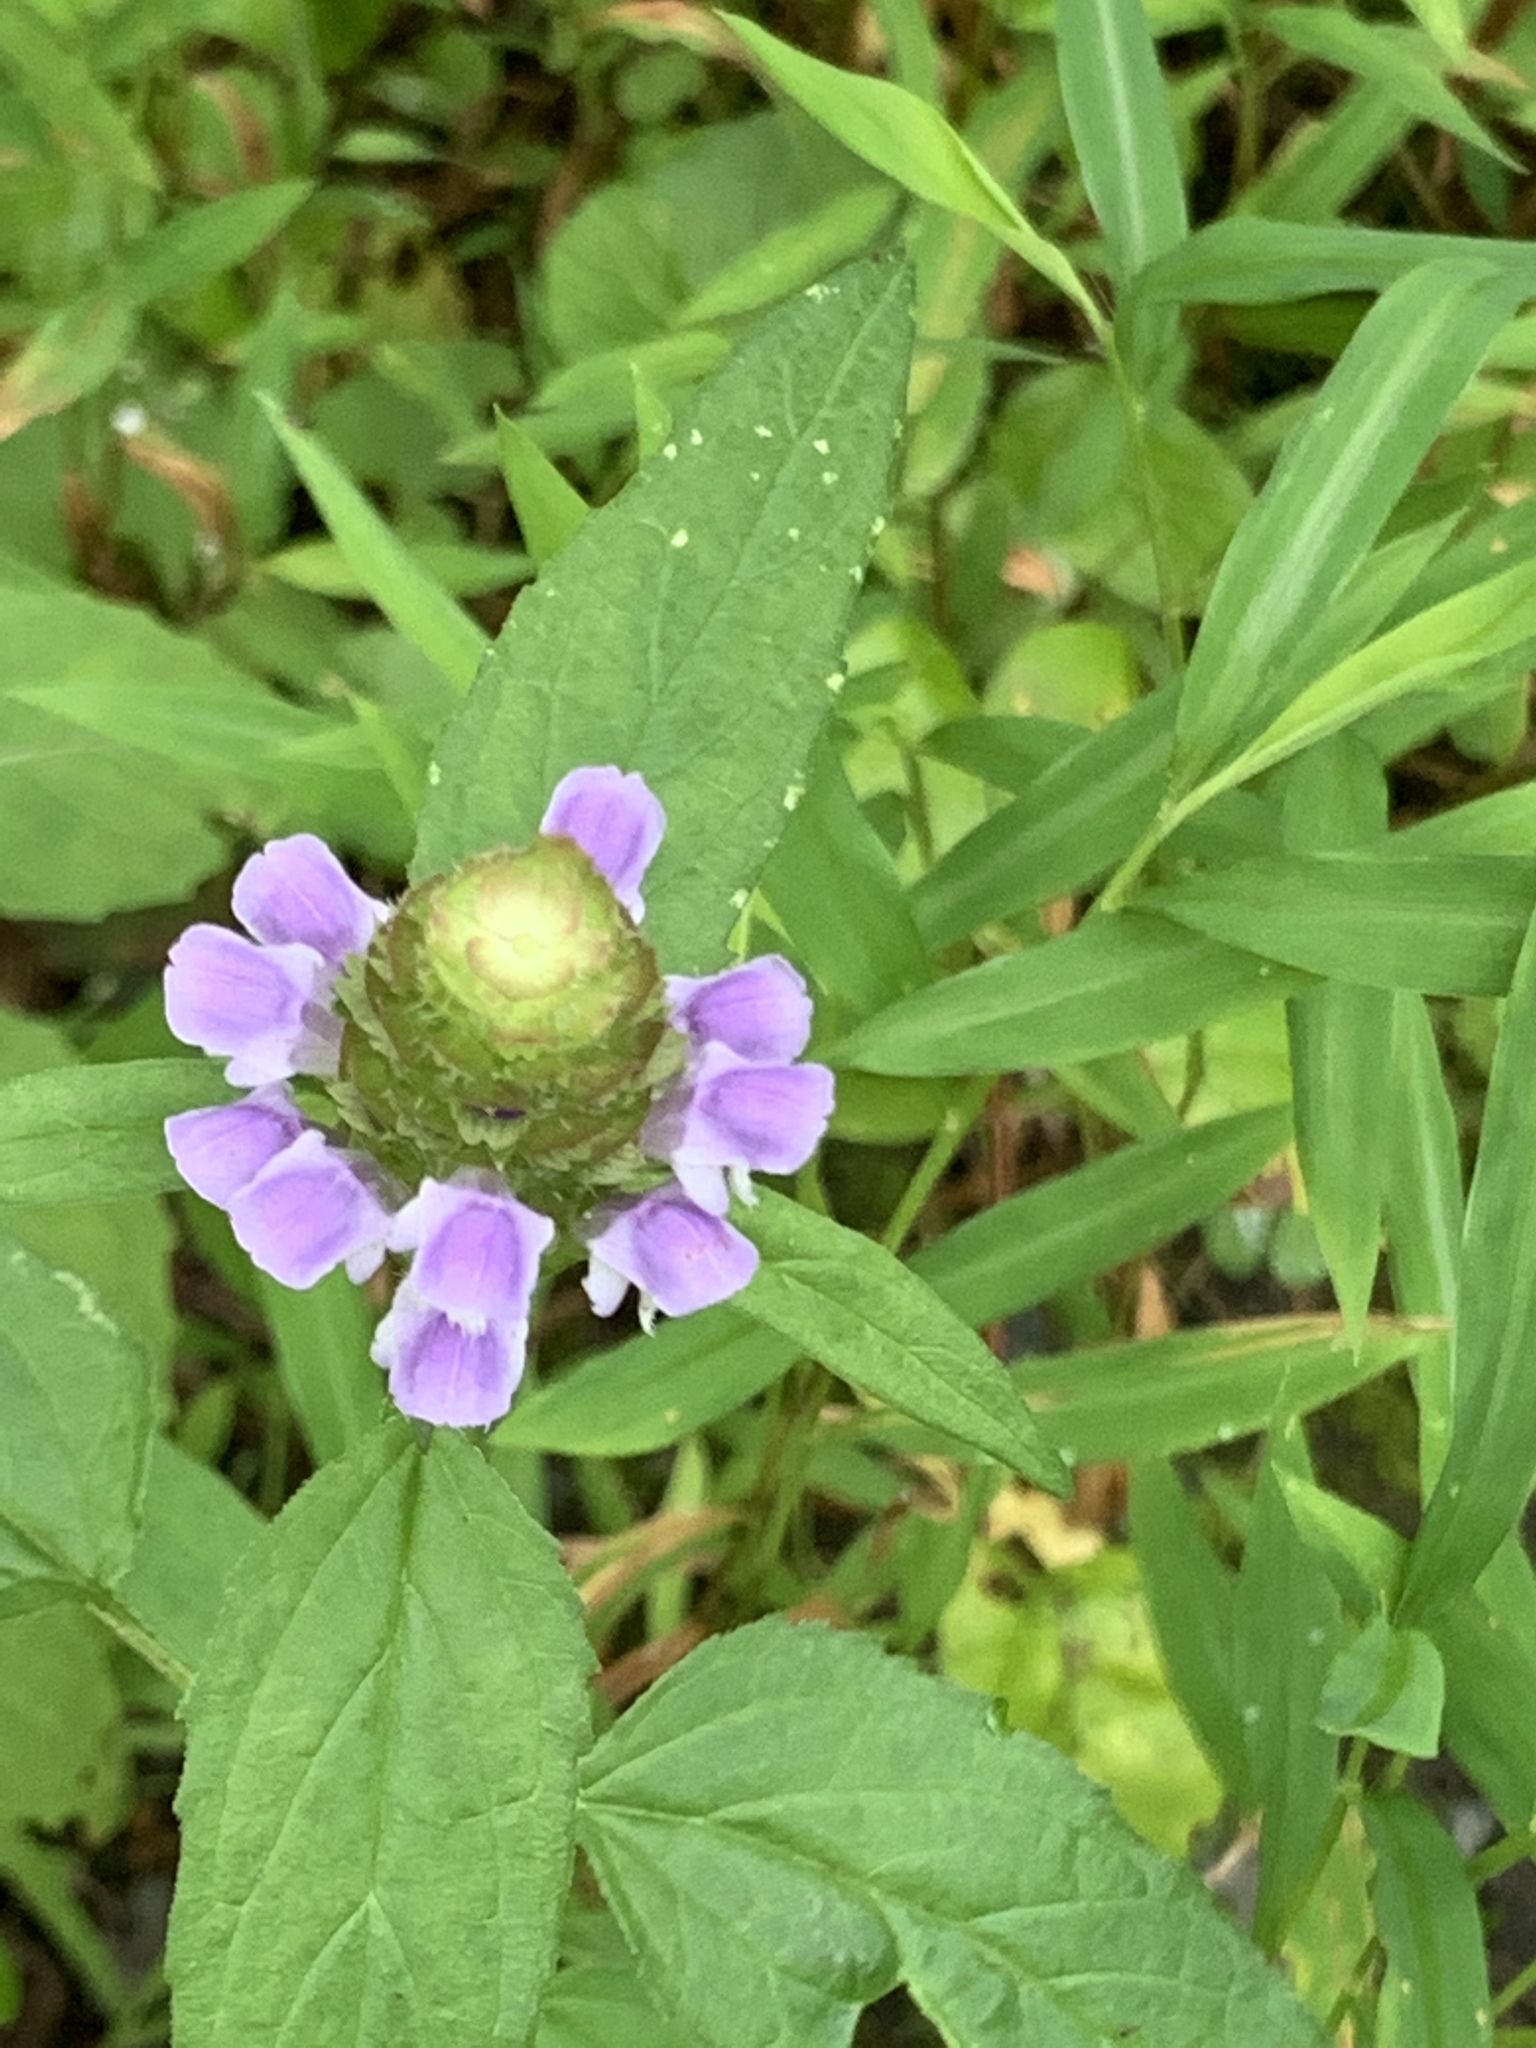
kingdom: Plantae
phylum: Tracheophyta
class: Magnoliopsida
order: Lamiales
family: Lamiaceae
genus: Prunella
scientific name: Prunella vulgaris
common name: Heal-all
